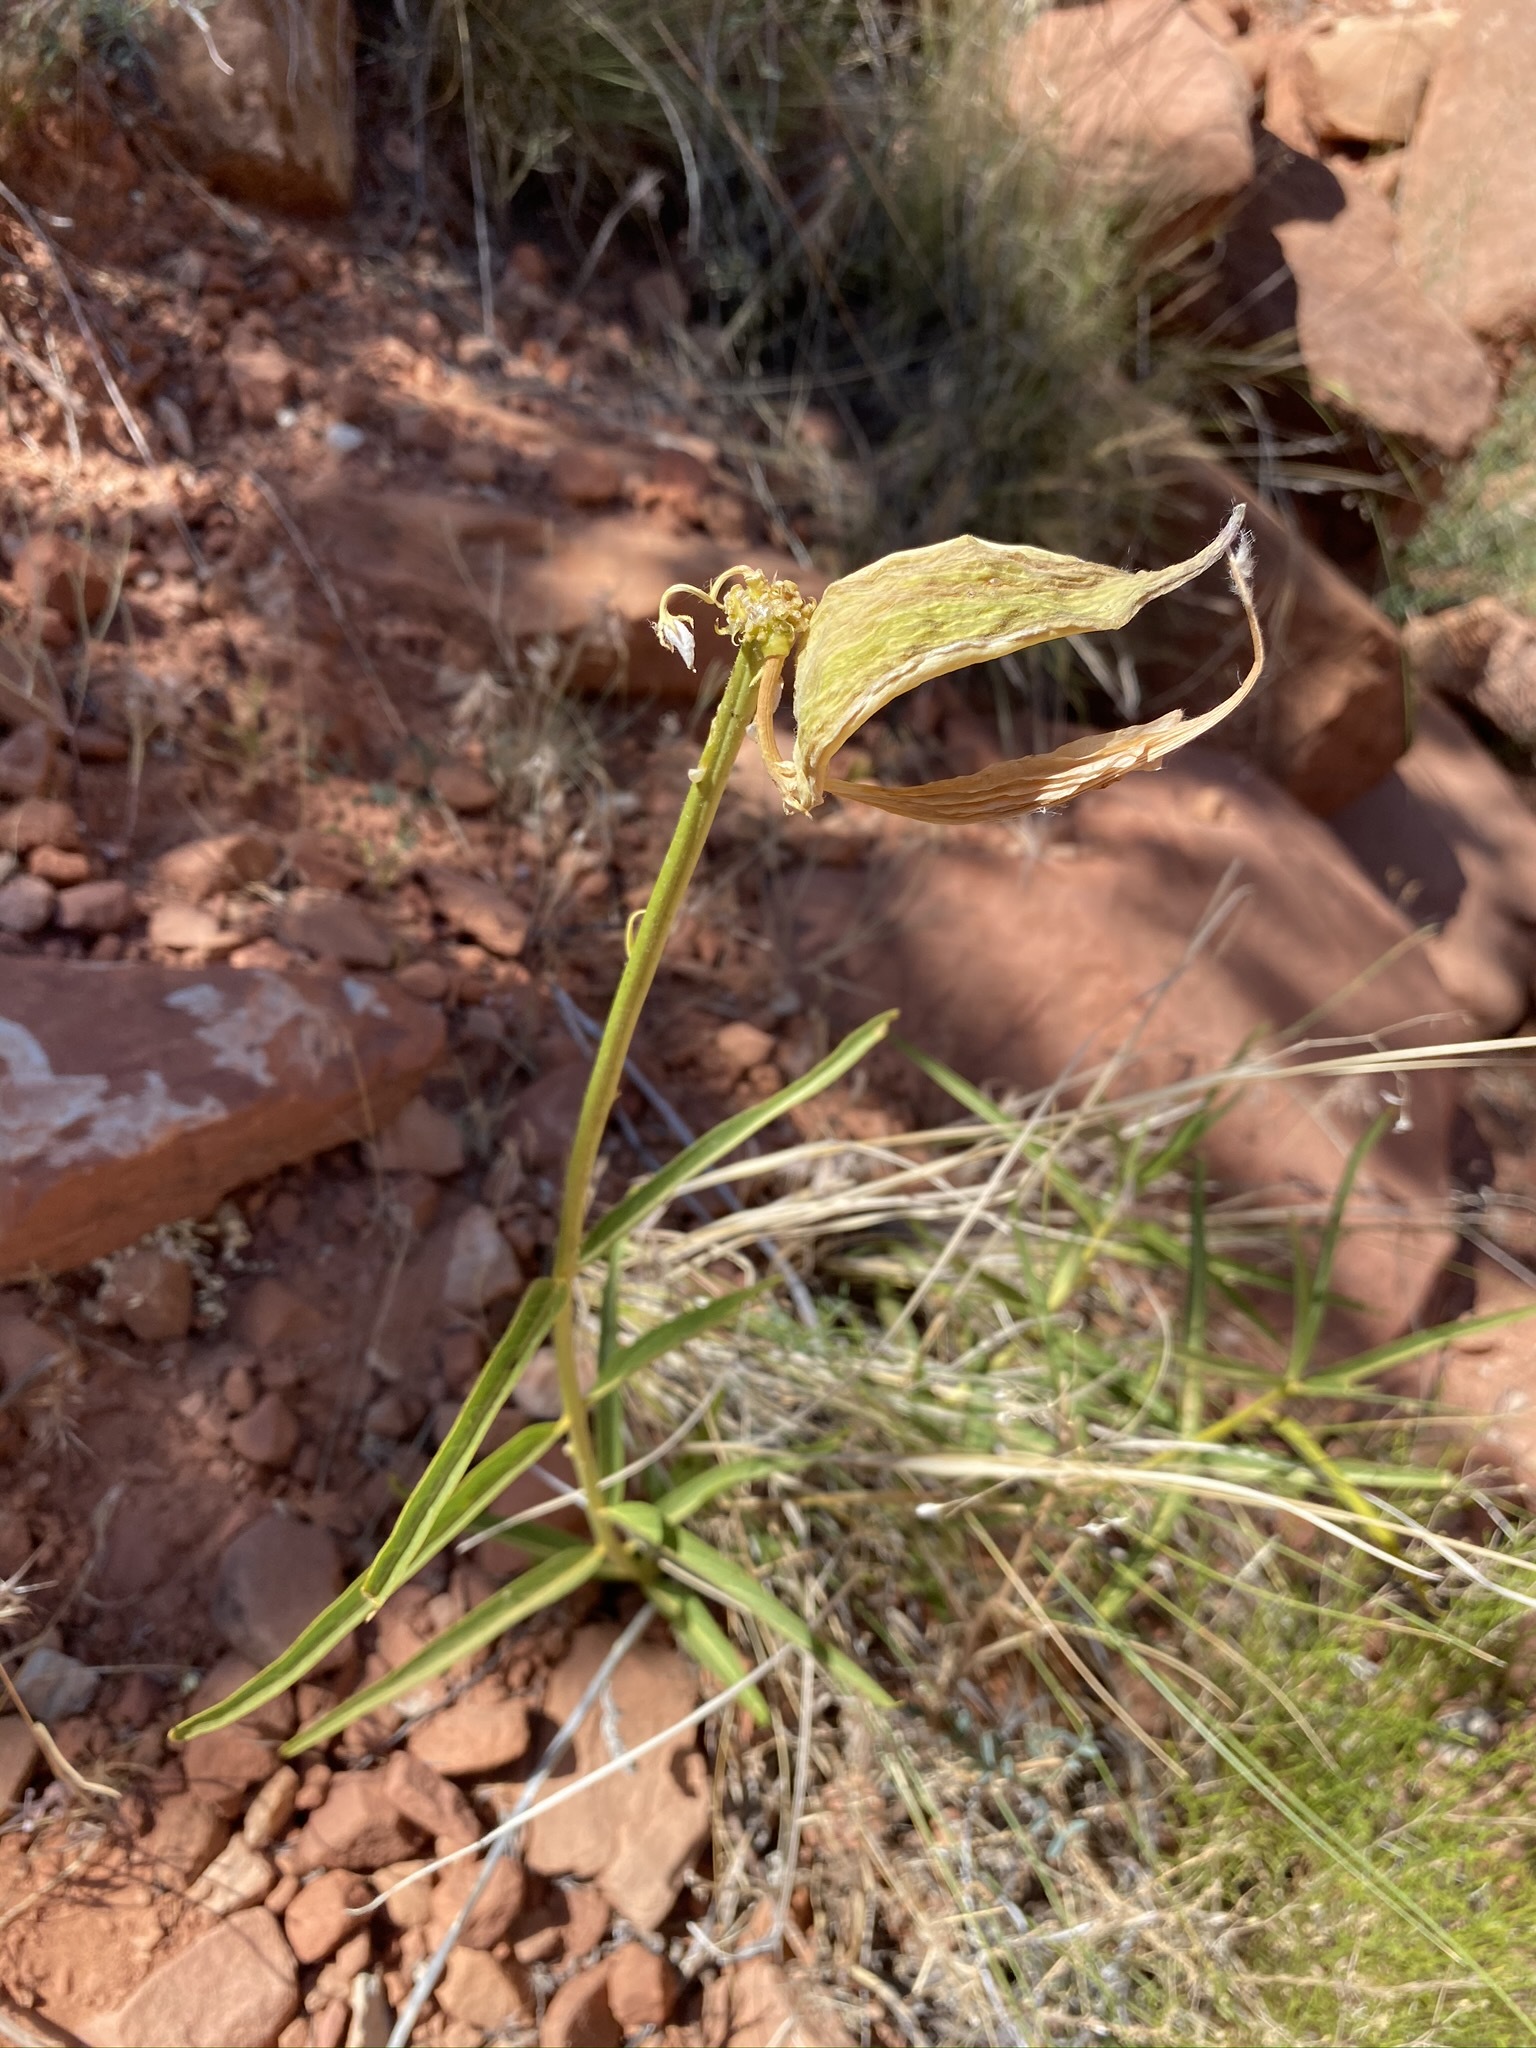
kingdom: Plantae
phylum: Tracheophyta
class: Magnoliopsida
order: Gentianales
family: Apocynaceae
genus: Asclepias
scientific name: Asclepias asperula
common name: Antelope horns
